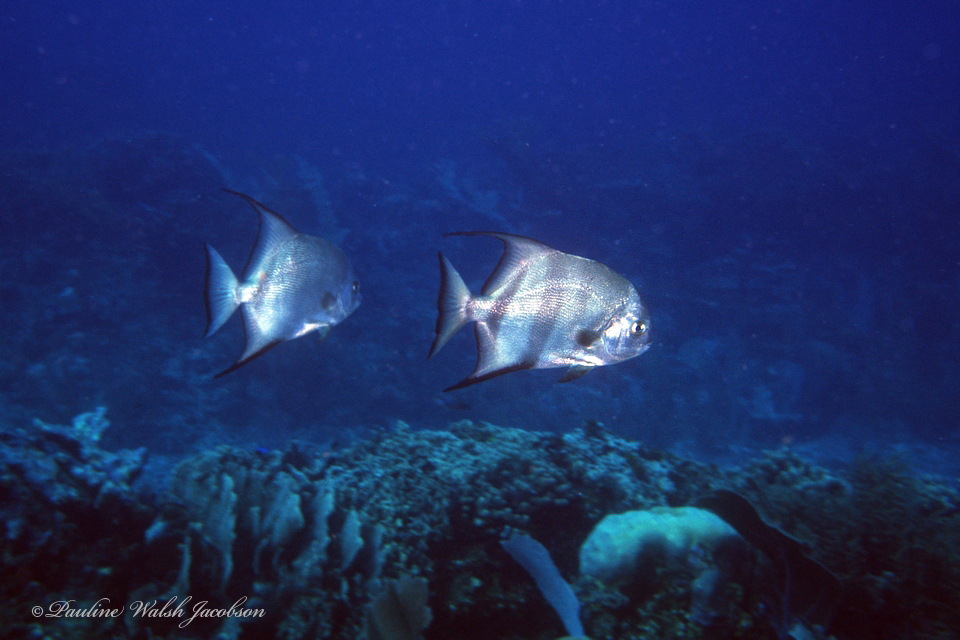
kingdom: Animalia
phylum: Chordata
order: Perciformes
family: Ephippidae
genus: Chaetodipterus
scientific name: Chaetodipterus faber
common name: Ocean cobbler
